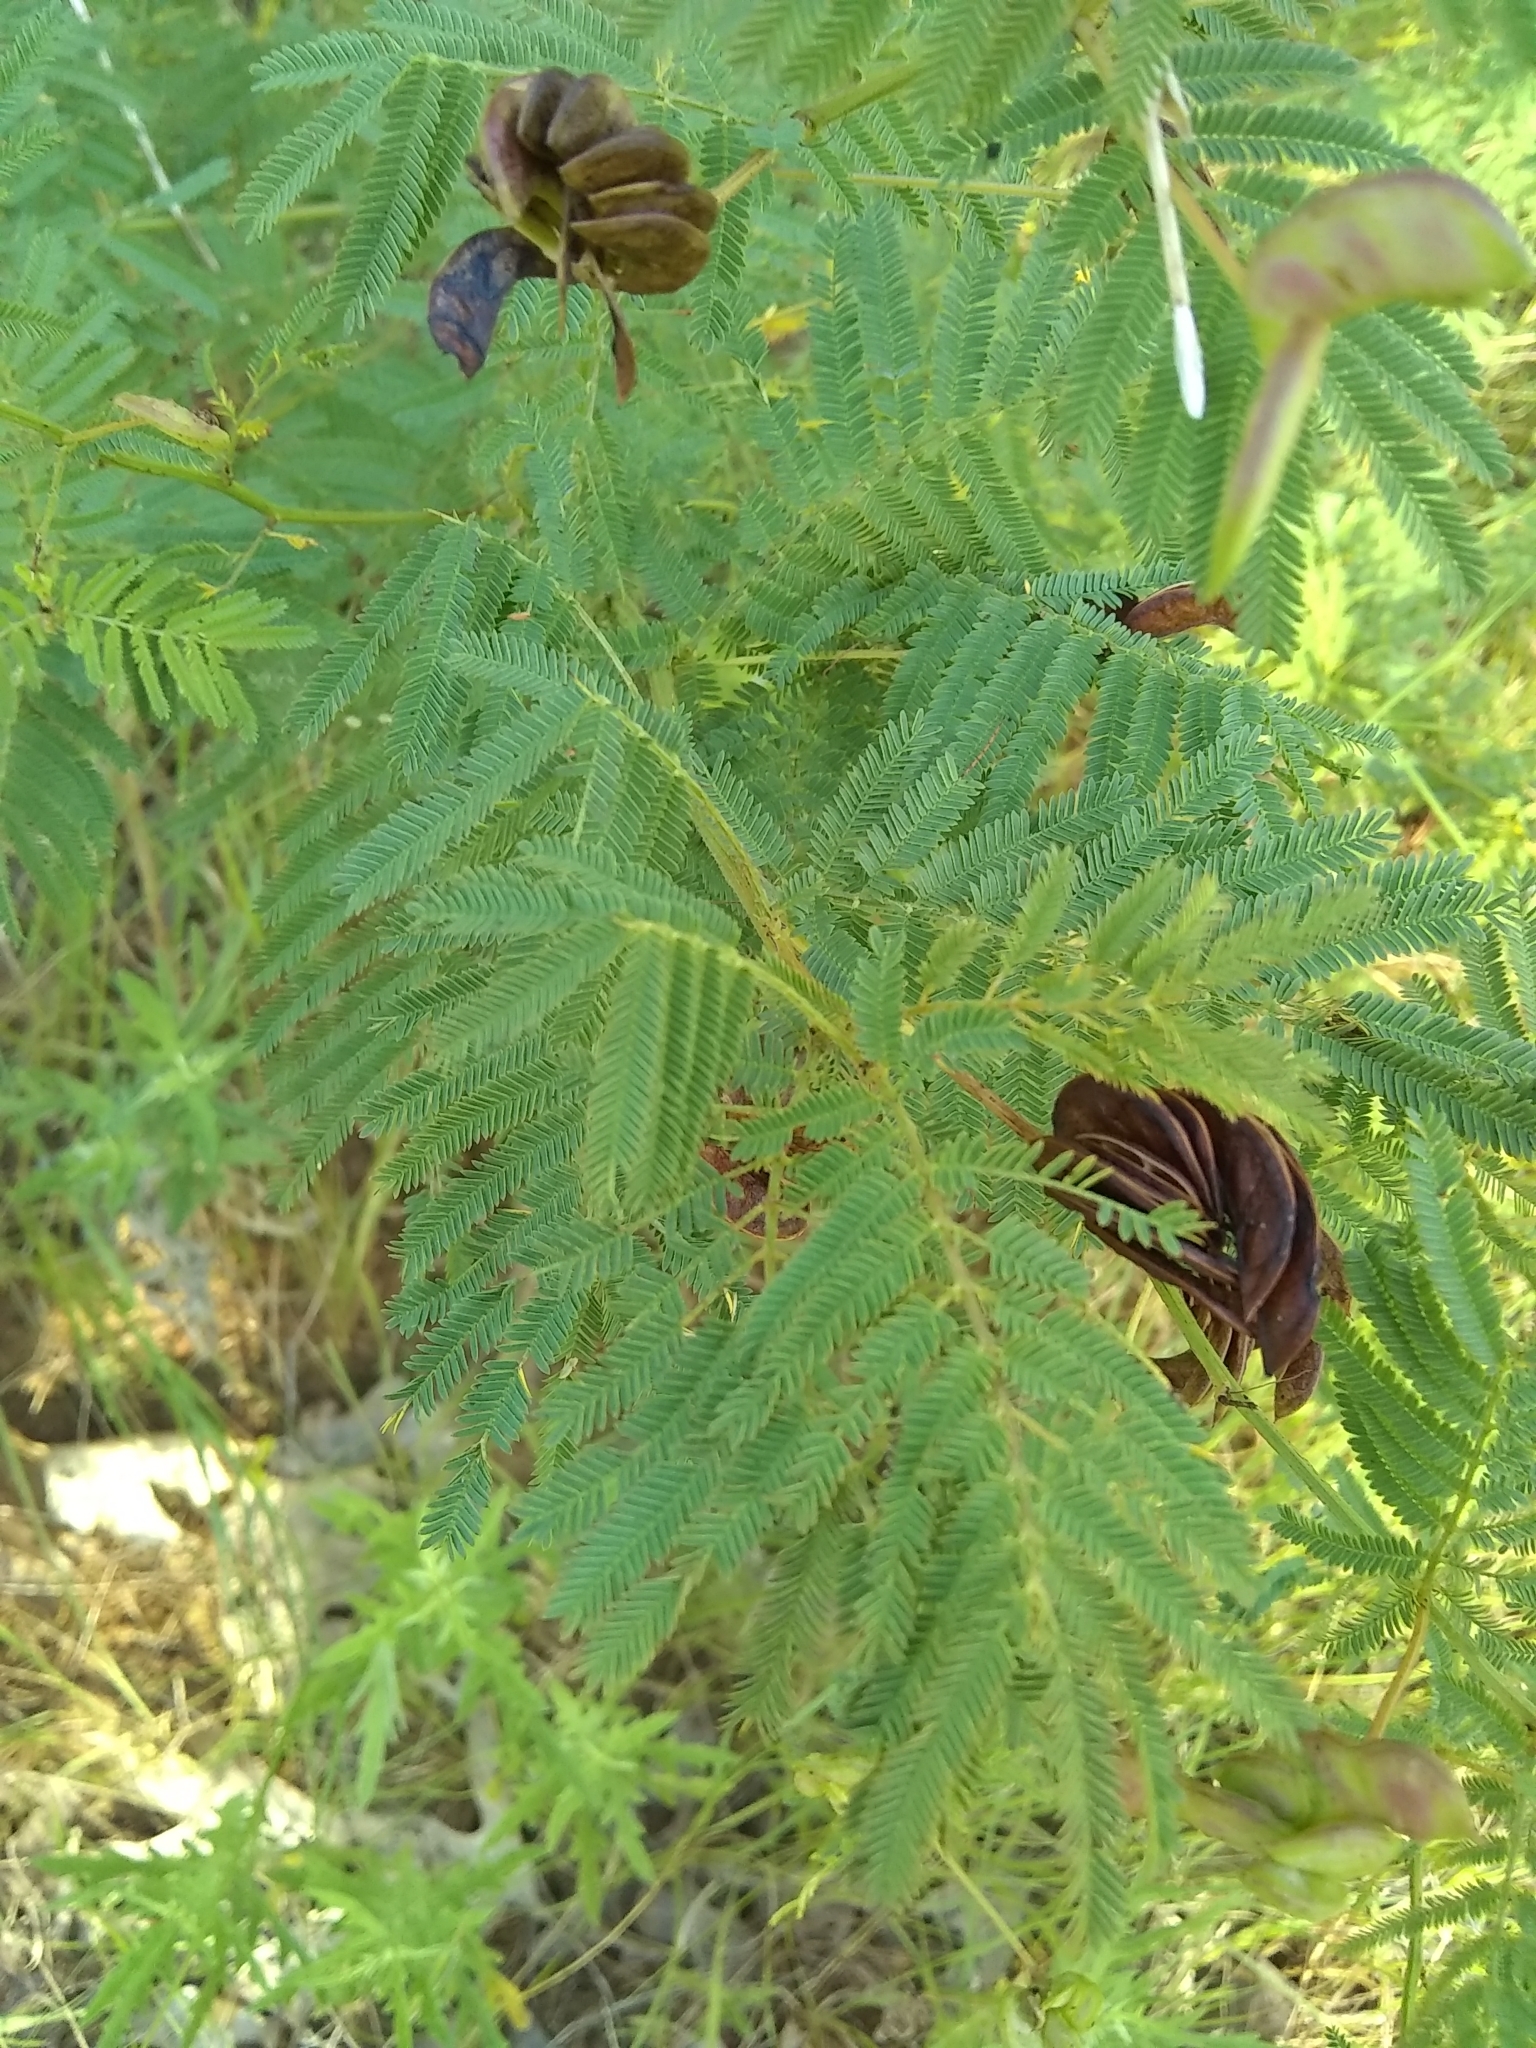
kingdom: Plantae
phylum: Tracheophyta
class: Magnoliopsida
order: Fabales
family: Fabaceae
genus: Desmanthus
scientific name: Desmanthus illinoensis
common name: Illinois bundle-flower
